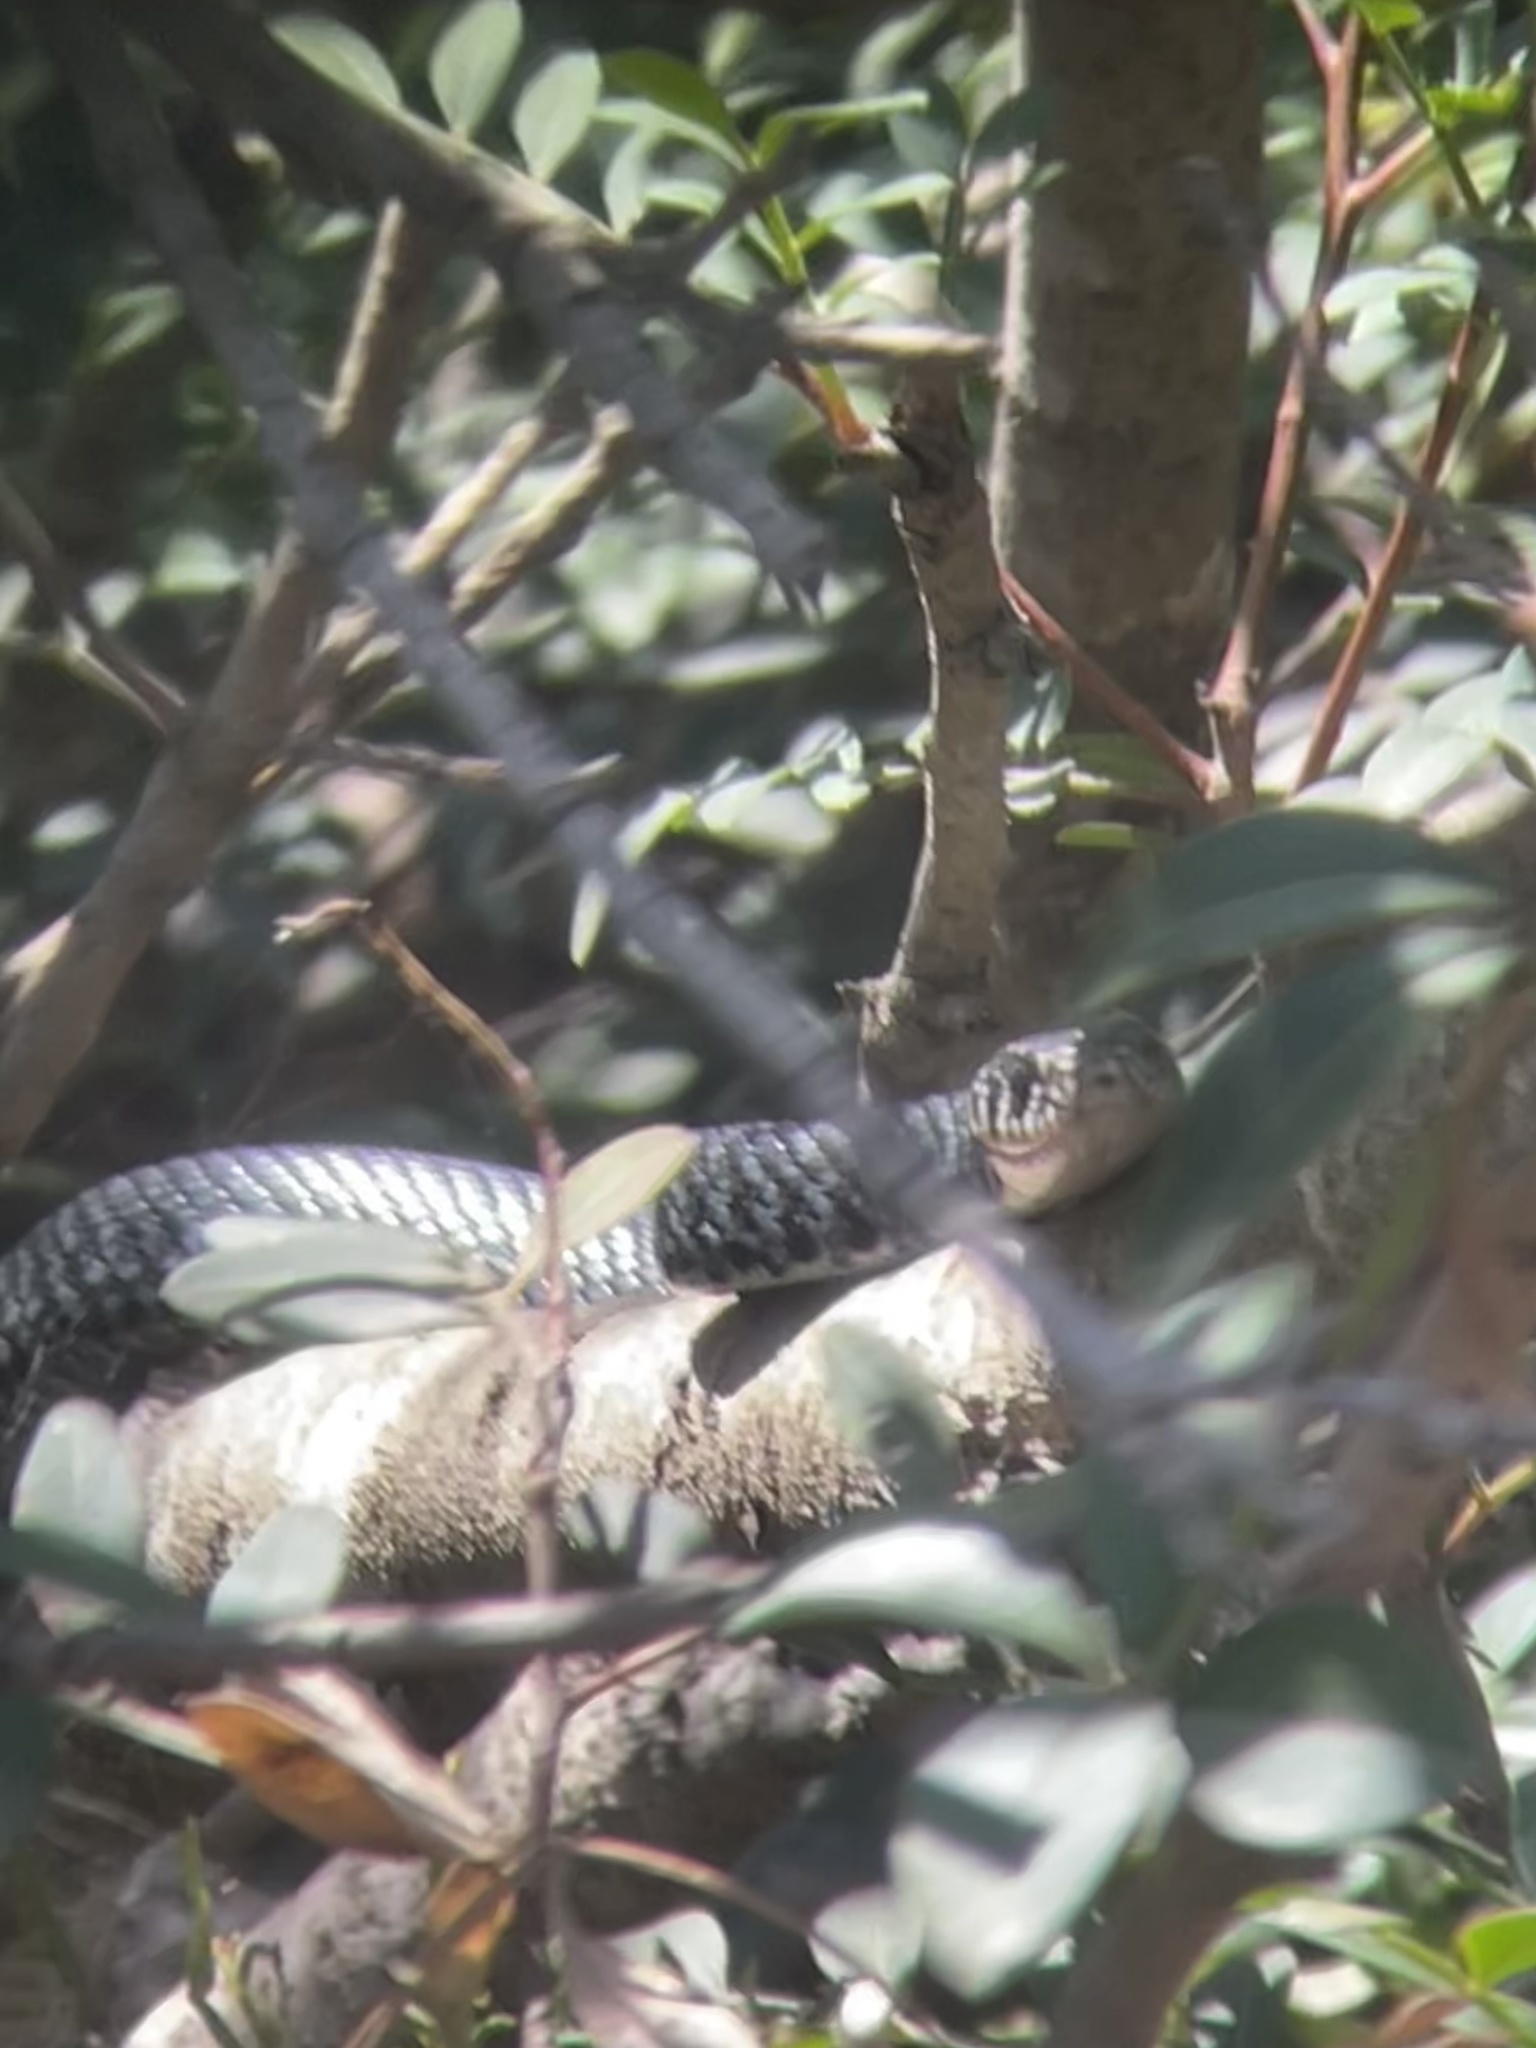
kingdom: Animalia
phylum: Chordata
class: Squamata
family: Colubridae
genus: Hierophis
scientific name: Hierophis viridiflavus
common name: Green whip snake
